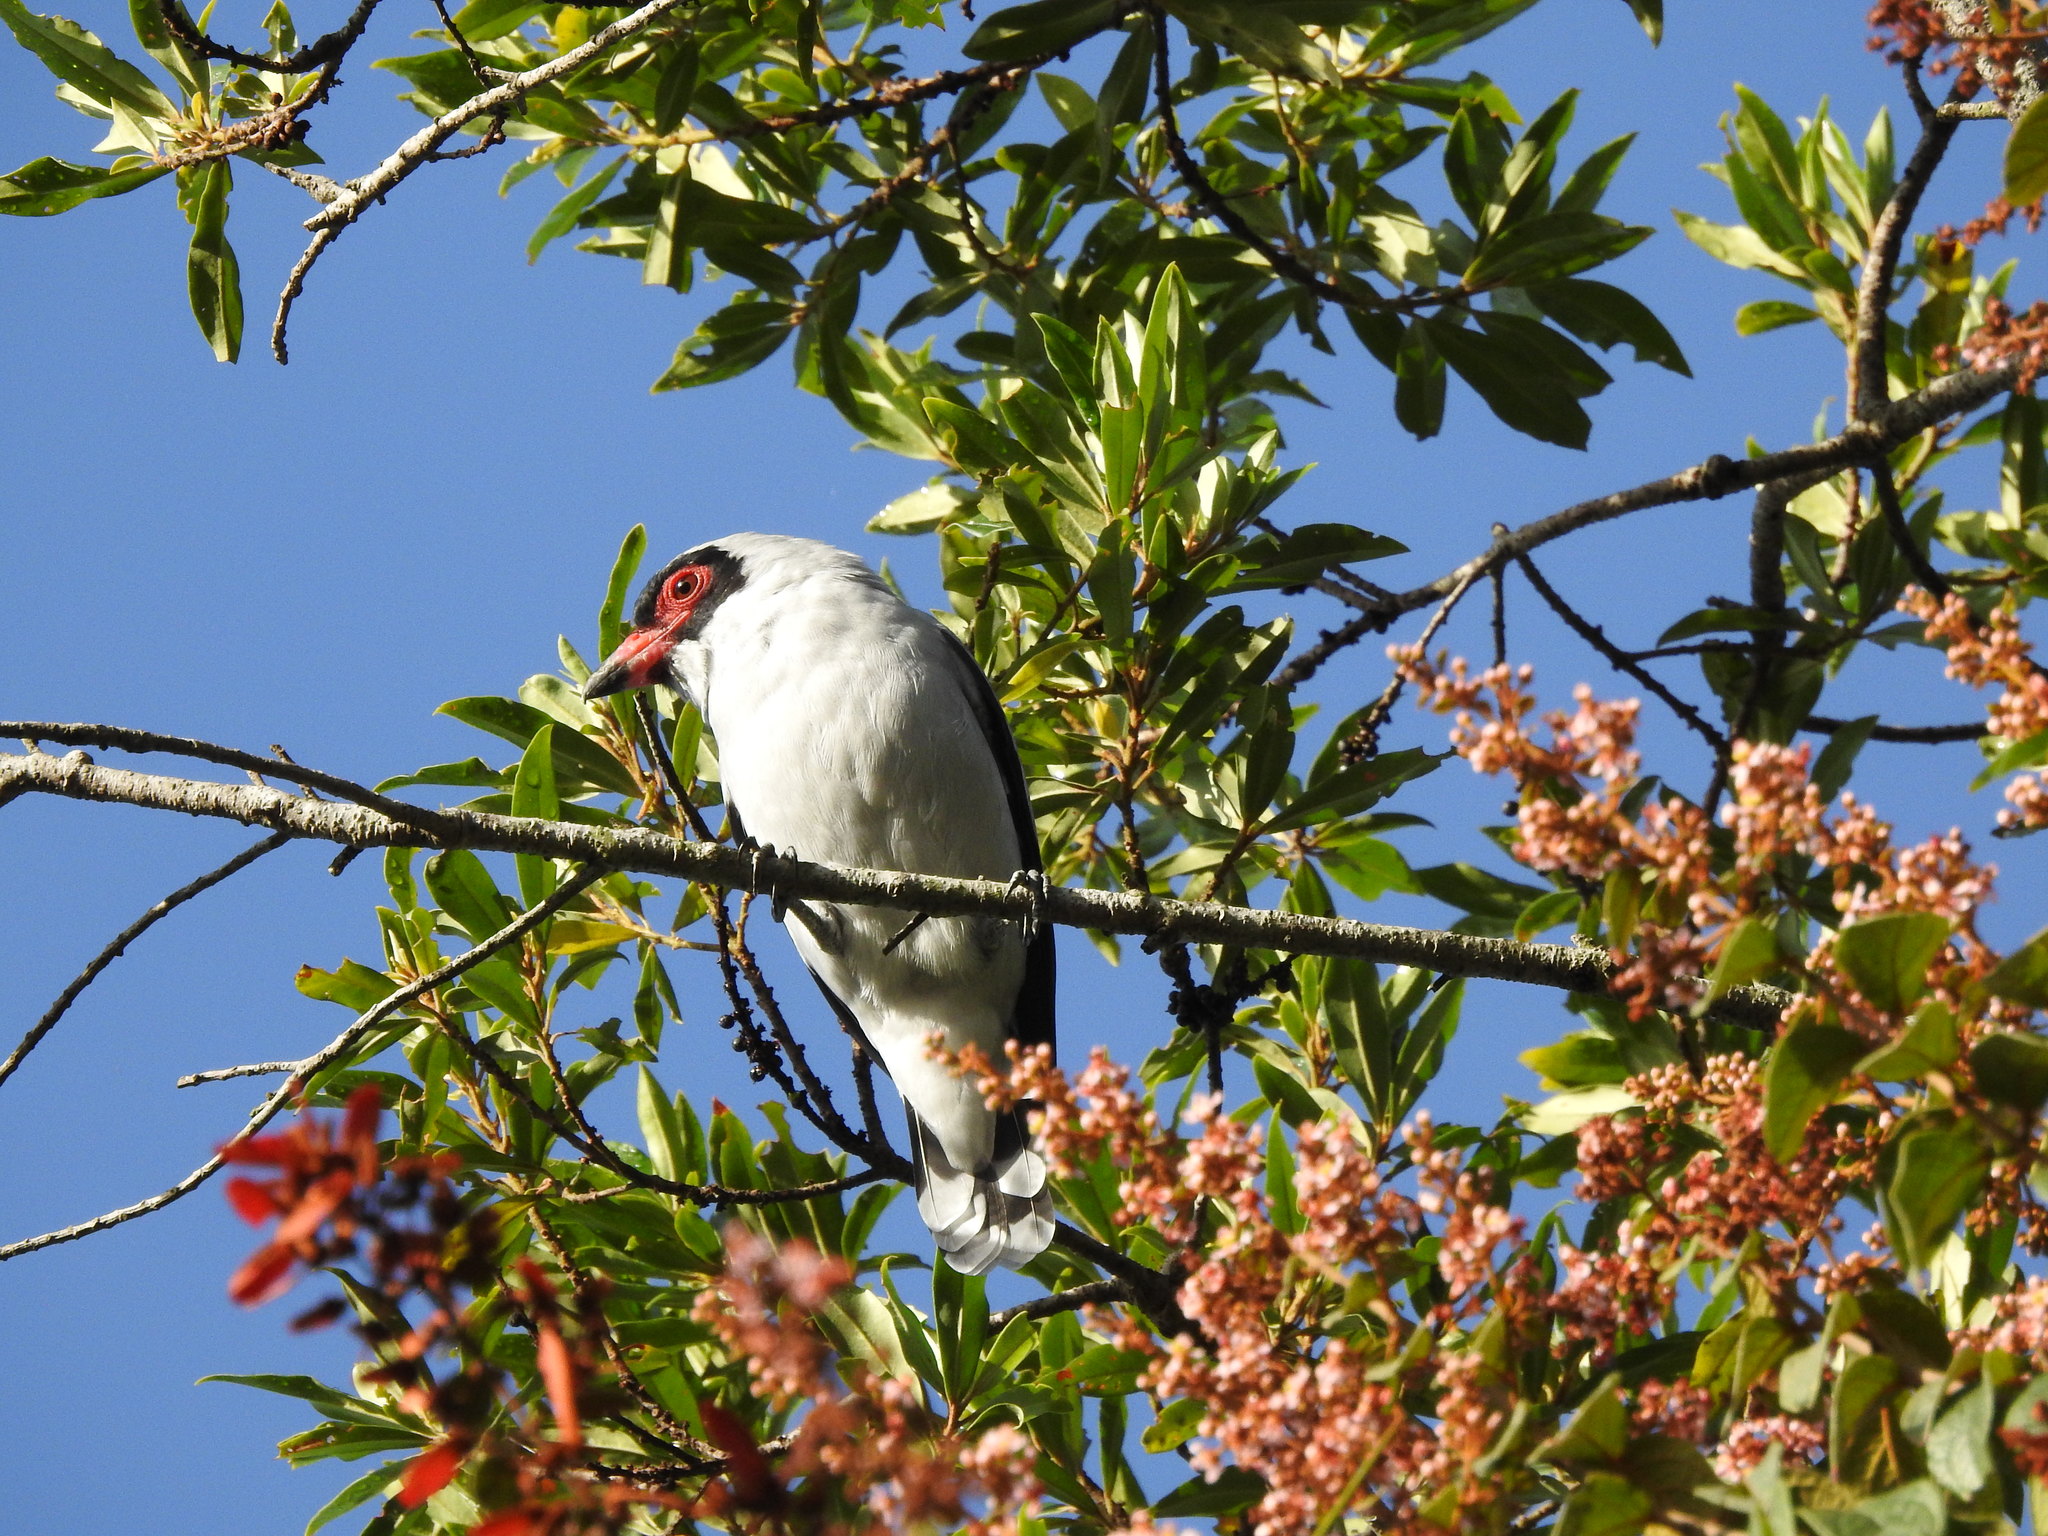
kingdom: Animalia
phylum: Chordata
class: Aves
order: Passeriformes
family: Cotingidae
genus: Tityra
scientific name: Tityra semifasciata
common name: Masked tityra
